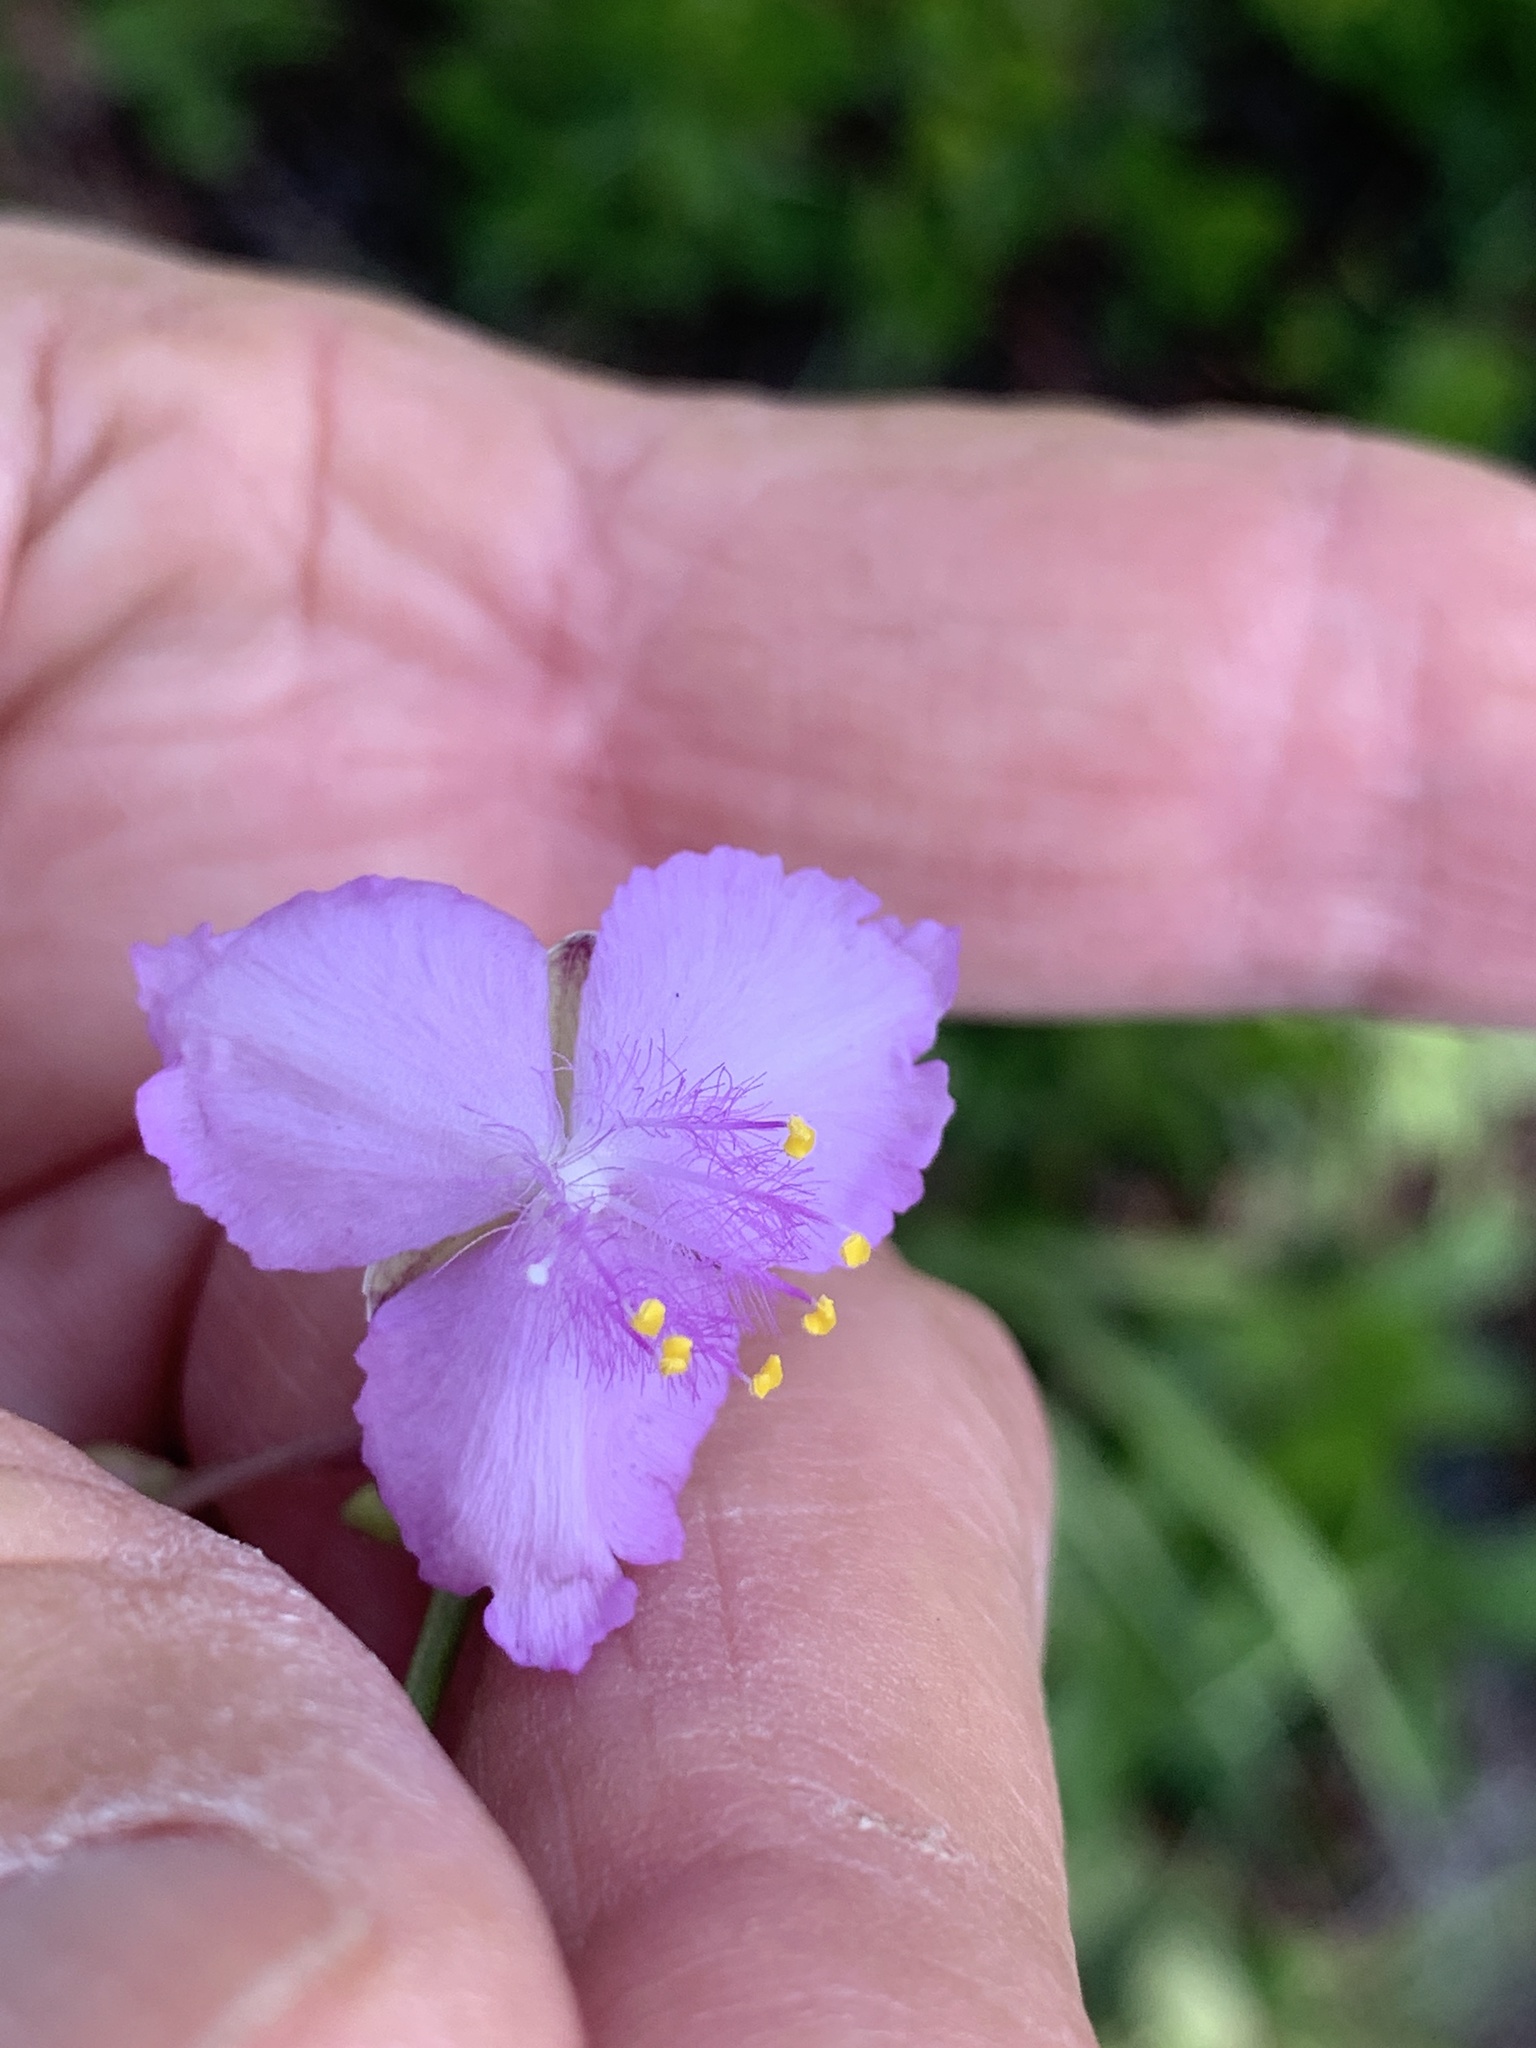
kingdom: Plantae
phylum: Tracheophyta
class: Liliopsida
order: Commelinales
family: Commelinaceae
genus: Callisia
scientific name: Callisia ornata
